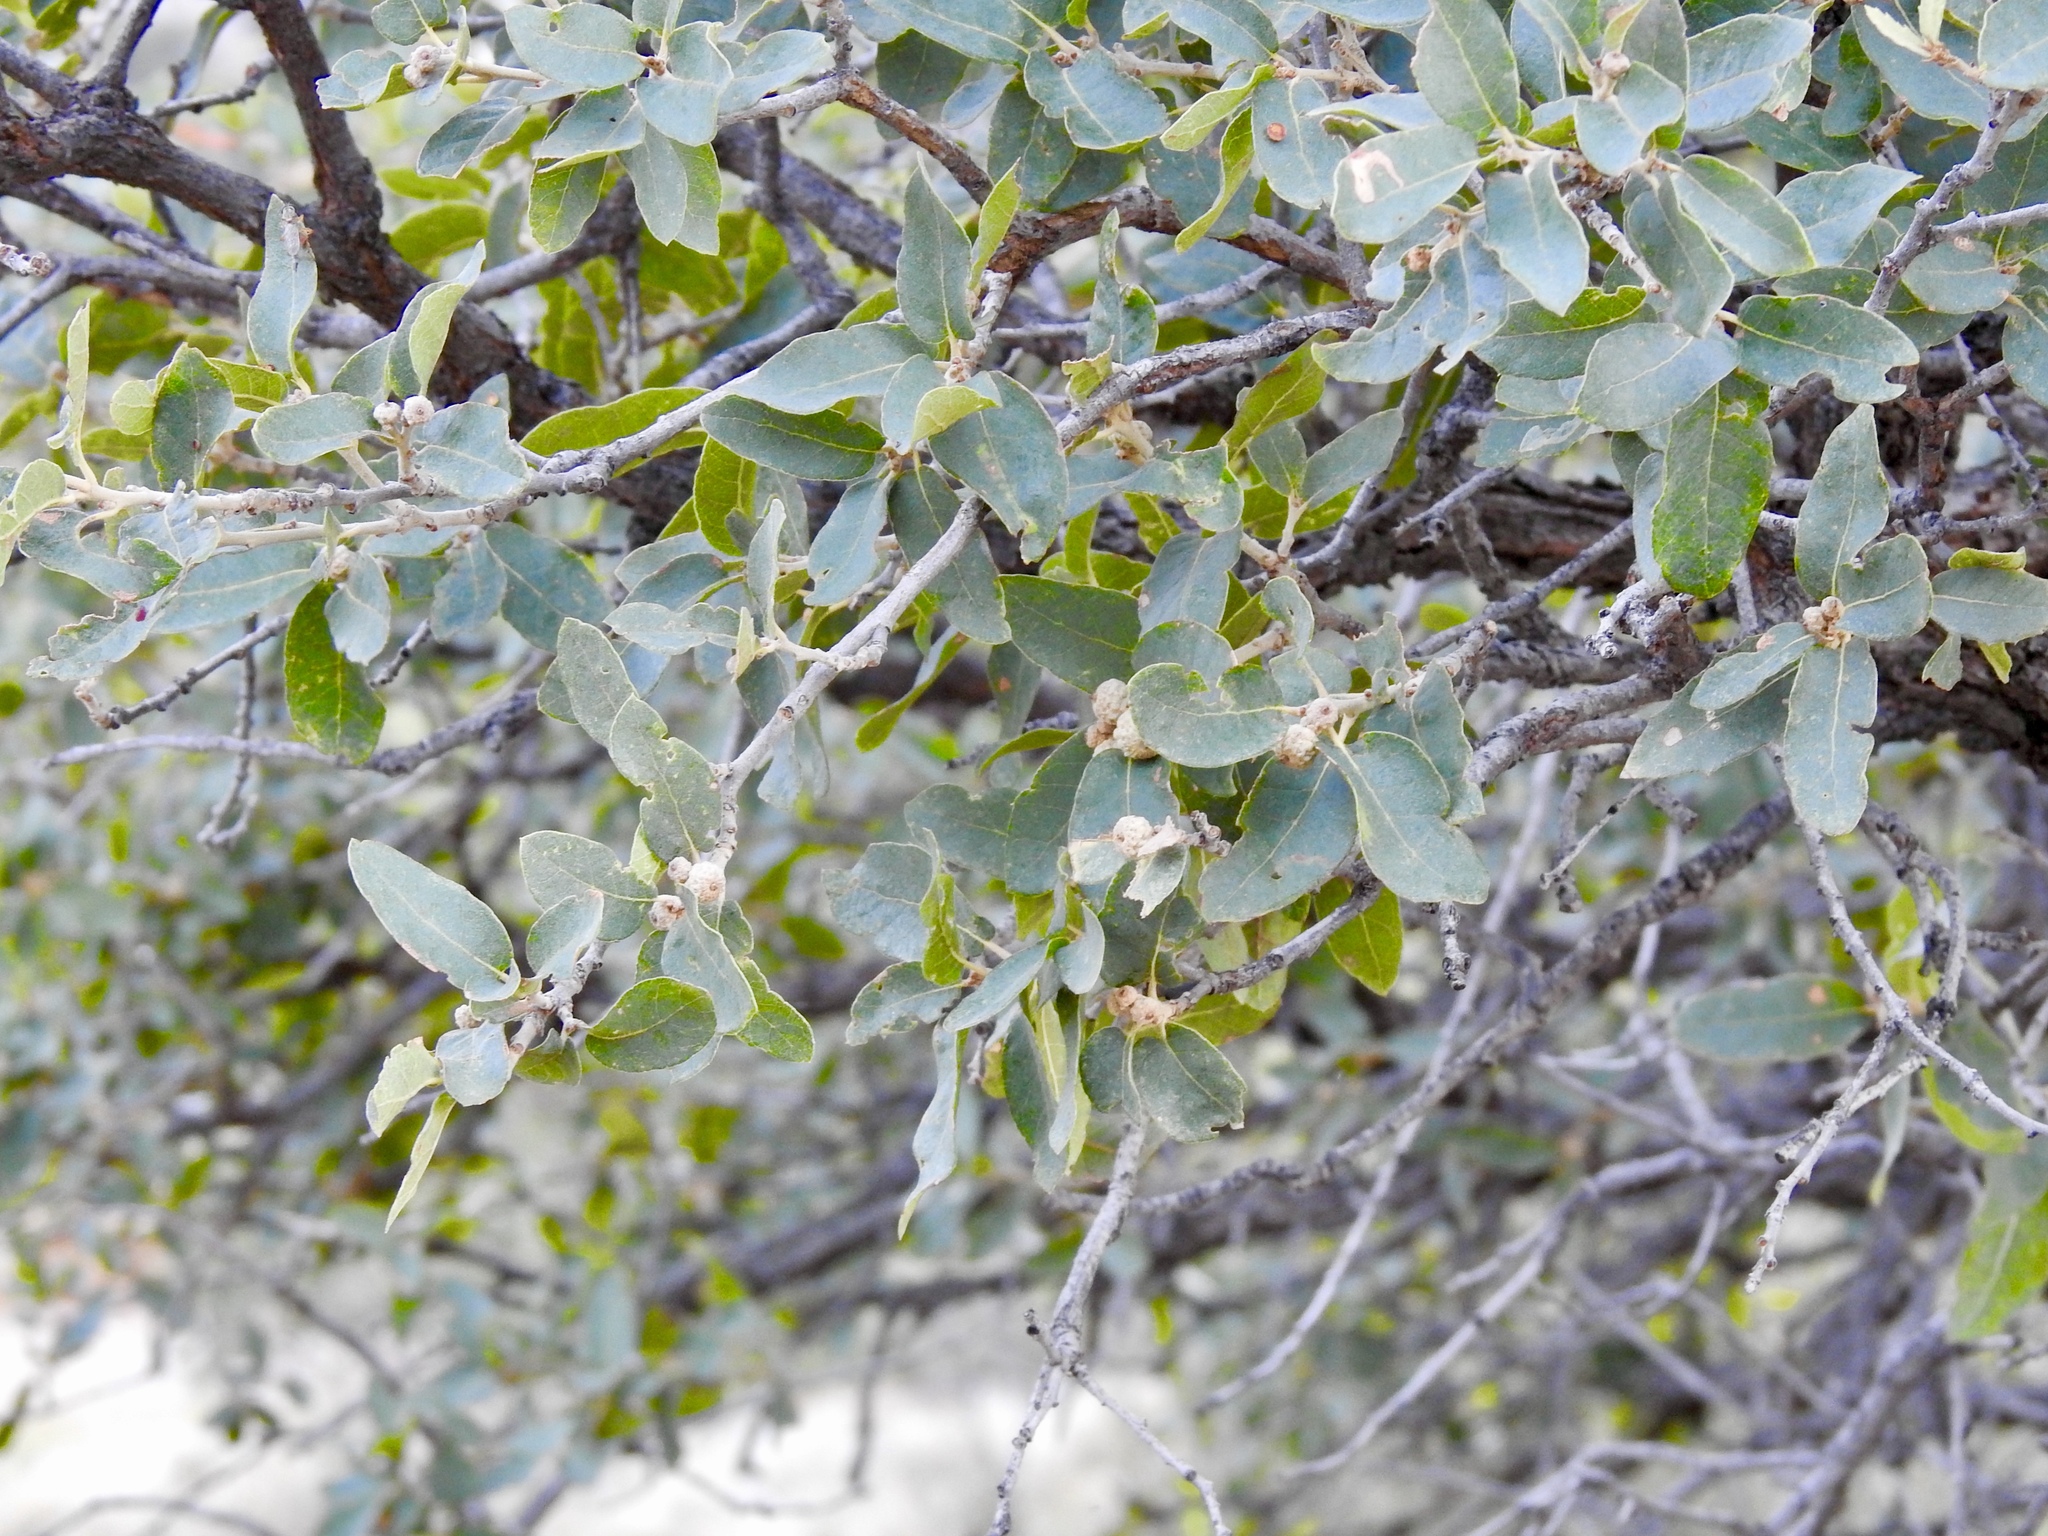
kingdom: Plantae
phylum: Tracheophyta
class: Magnoliopsida
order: Fagales
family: Fagaceae
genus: Quercus
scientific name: Quercus grisea
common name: Gray oak
